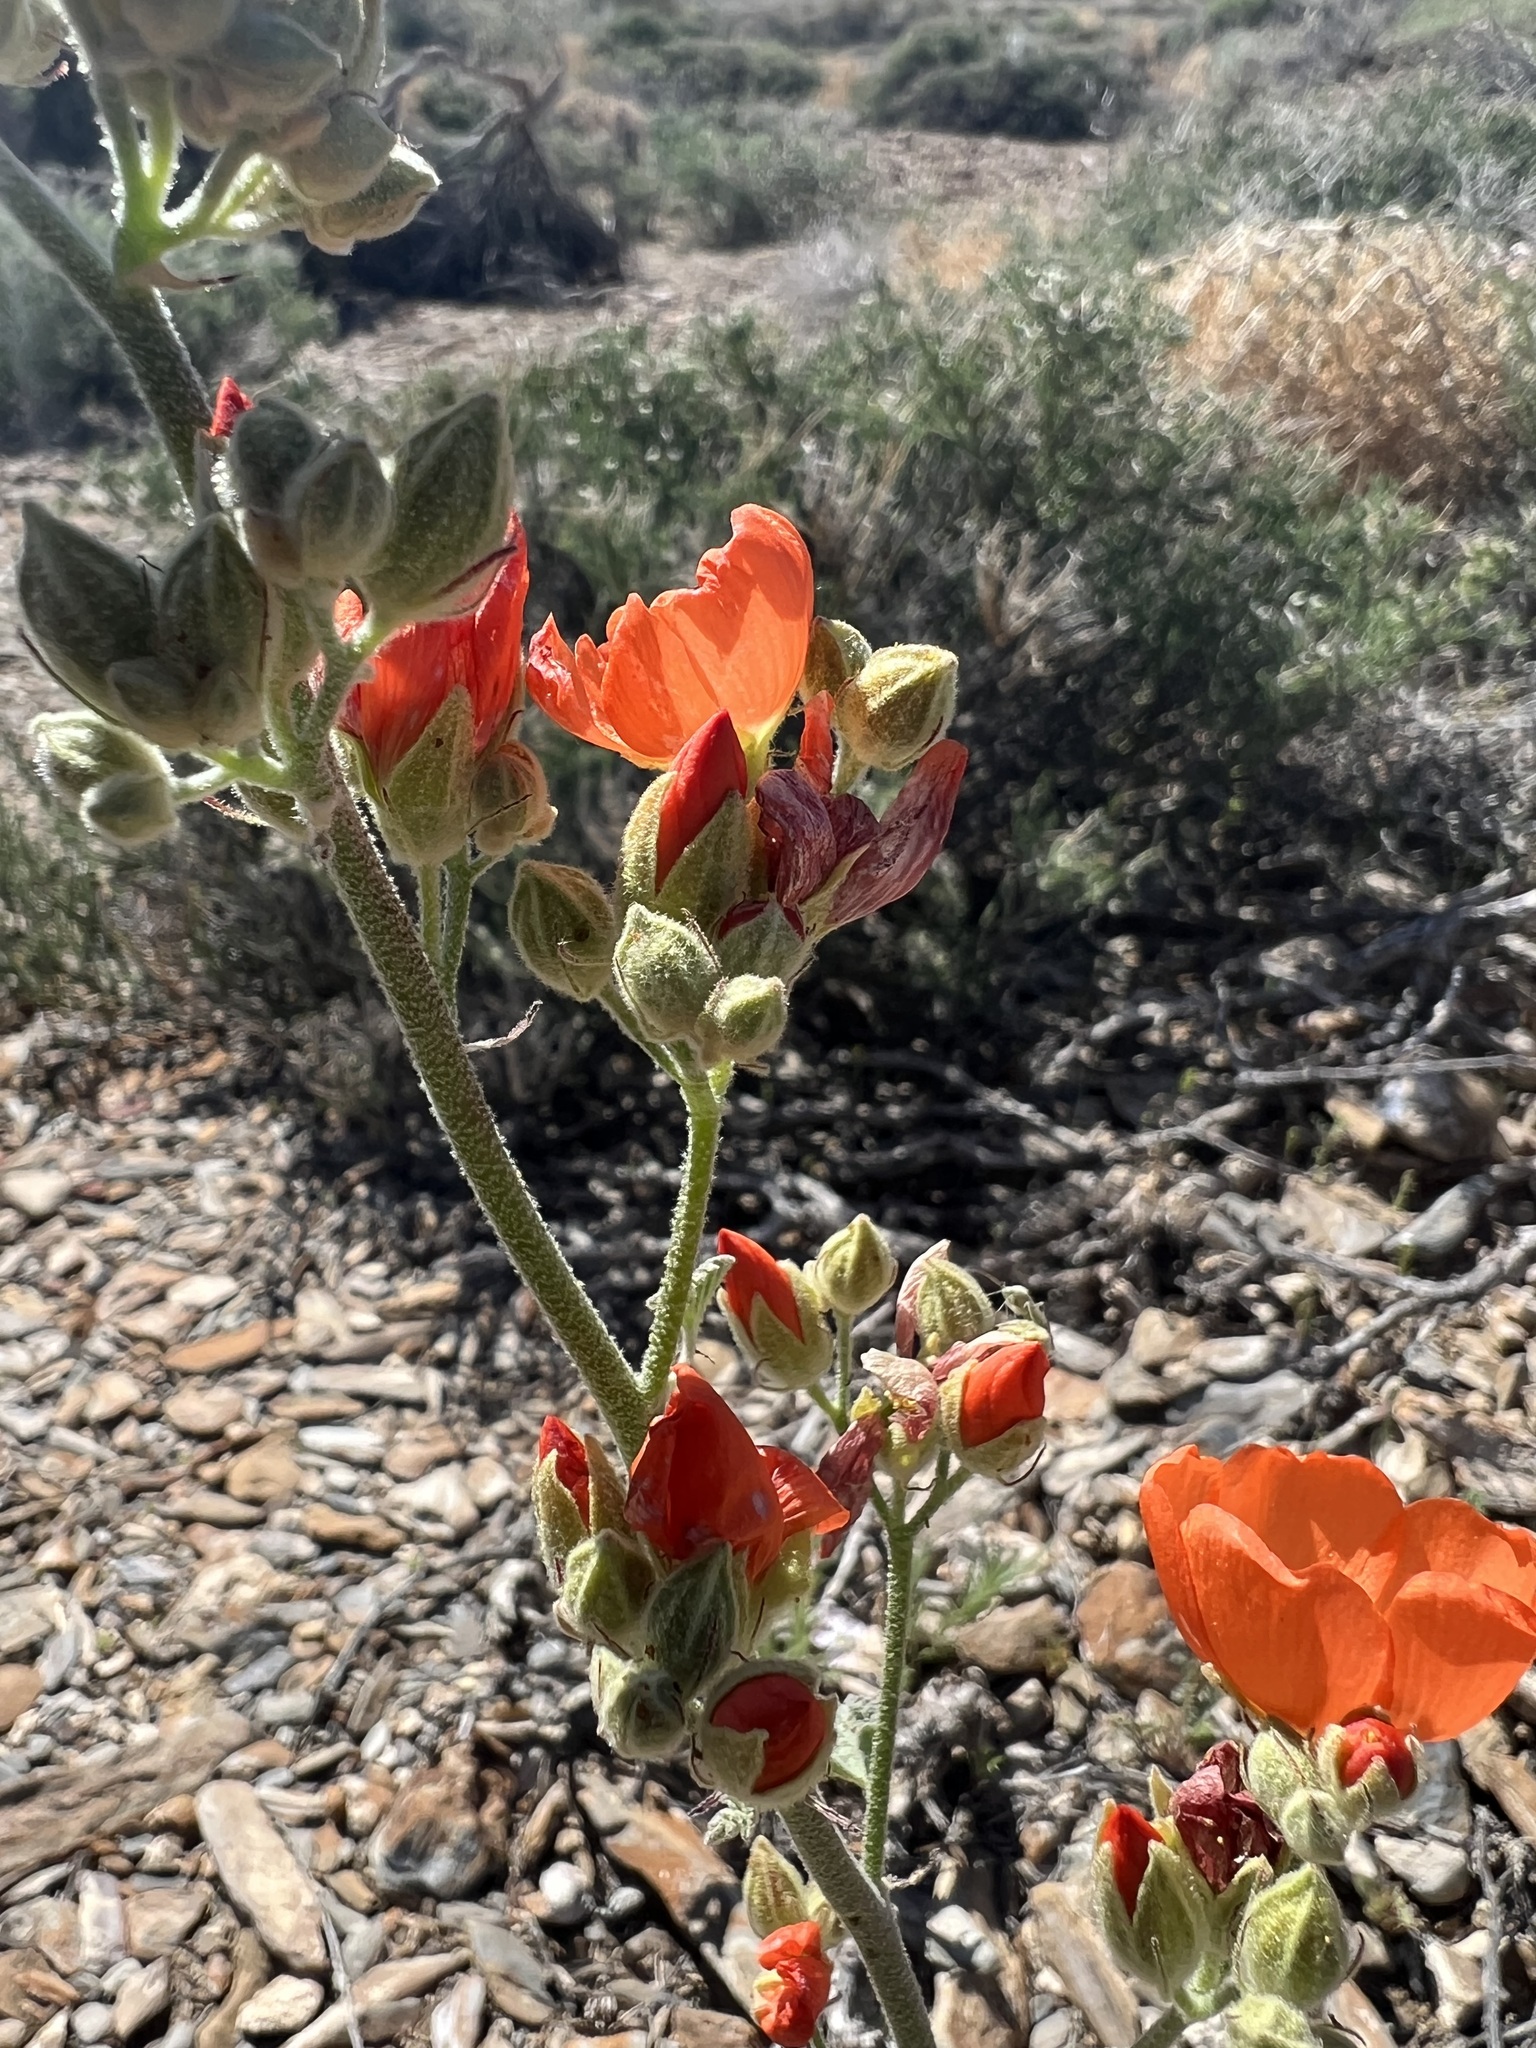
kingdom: Plantae
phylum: Tracheophyta
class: Magnoliopsida
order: Malvales
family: Malvaceae
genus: Sphaeralcea
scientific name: Sphaeralcea ambigua
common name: Apricot globe-mallow
